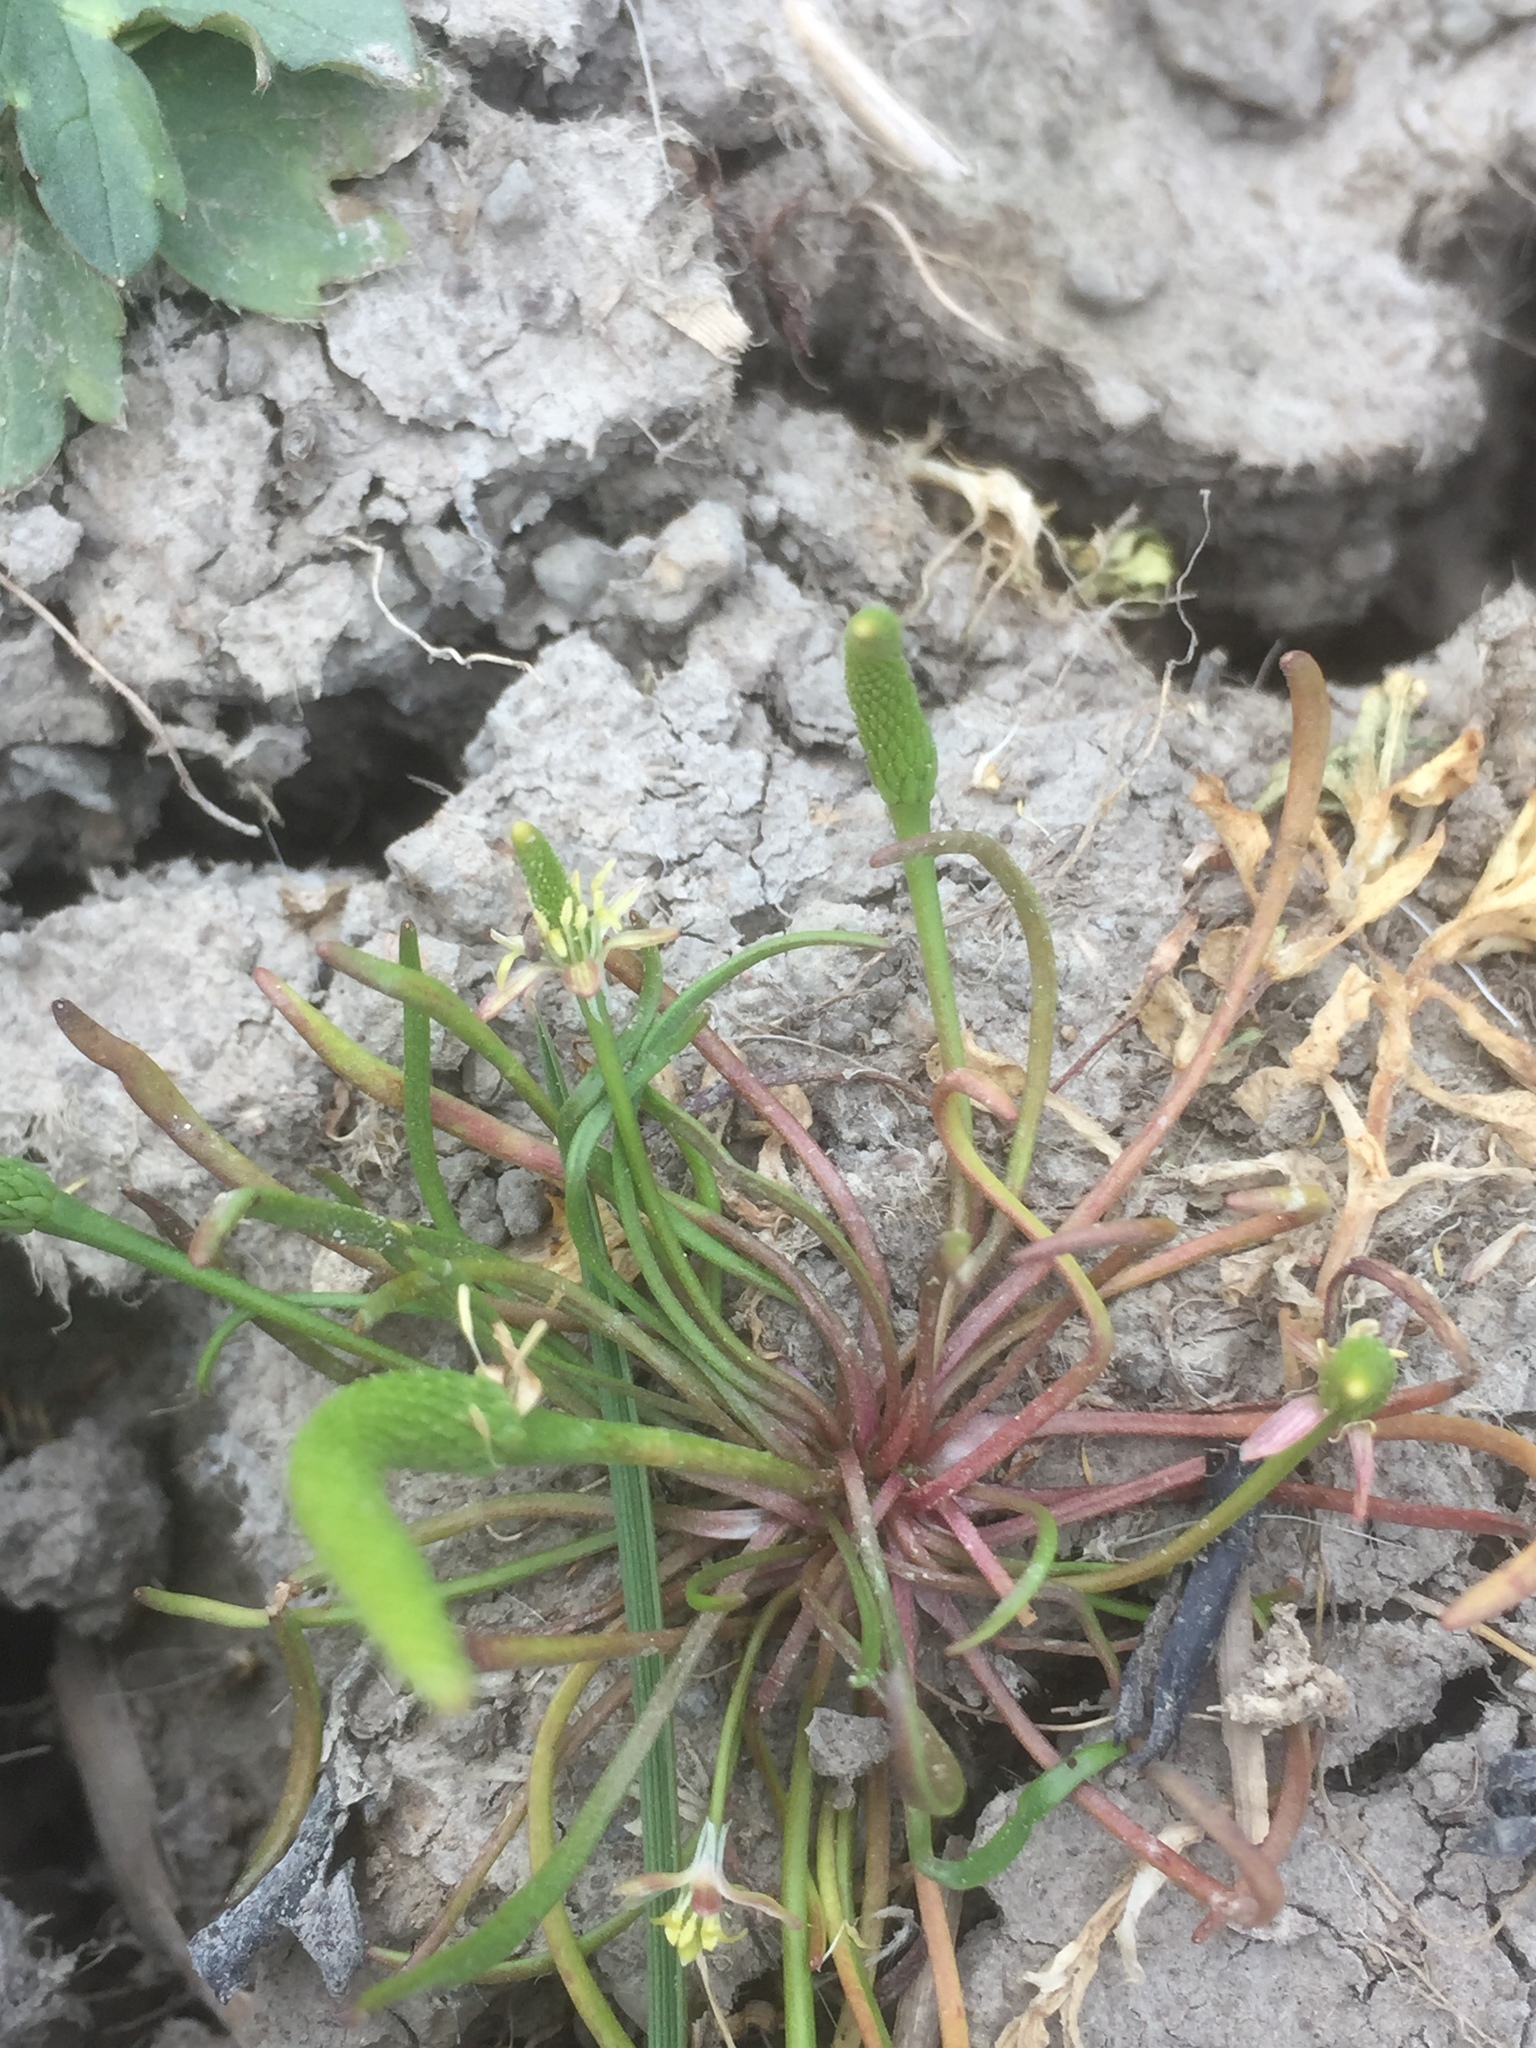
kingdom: Plantae
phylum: Tracheophyta
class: Magnoliopsida
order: Ranunculales
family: Ranunculaceae
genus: Myosurus
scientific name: Myosurus minimus
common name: Mousetail
